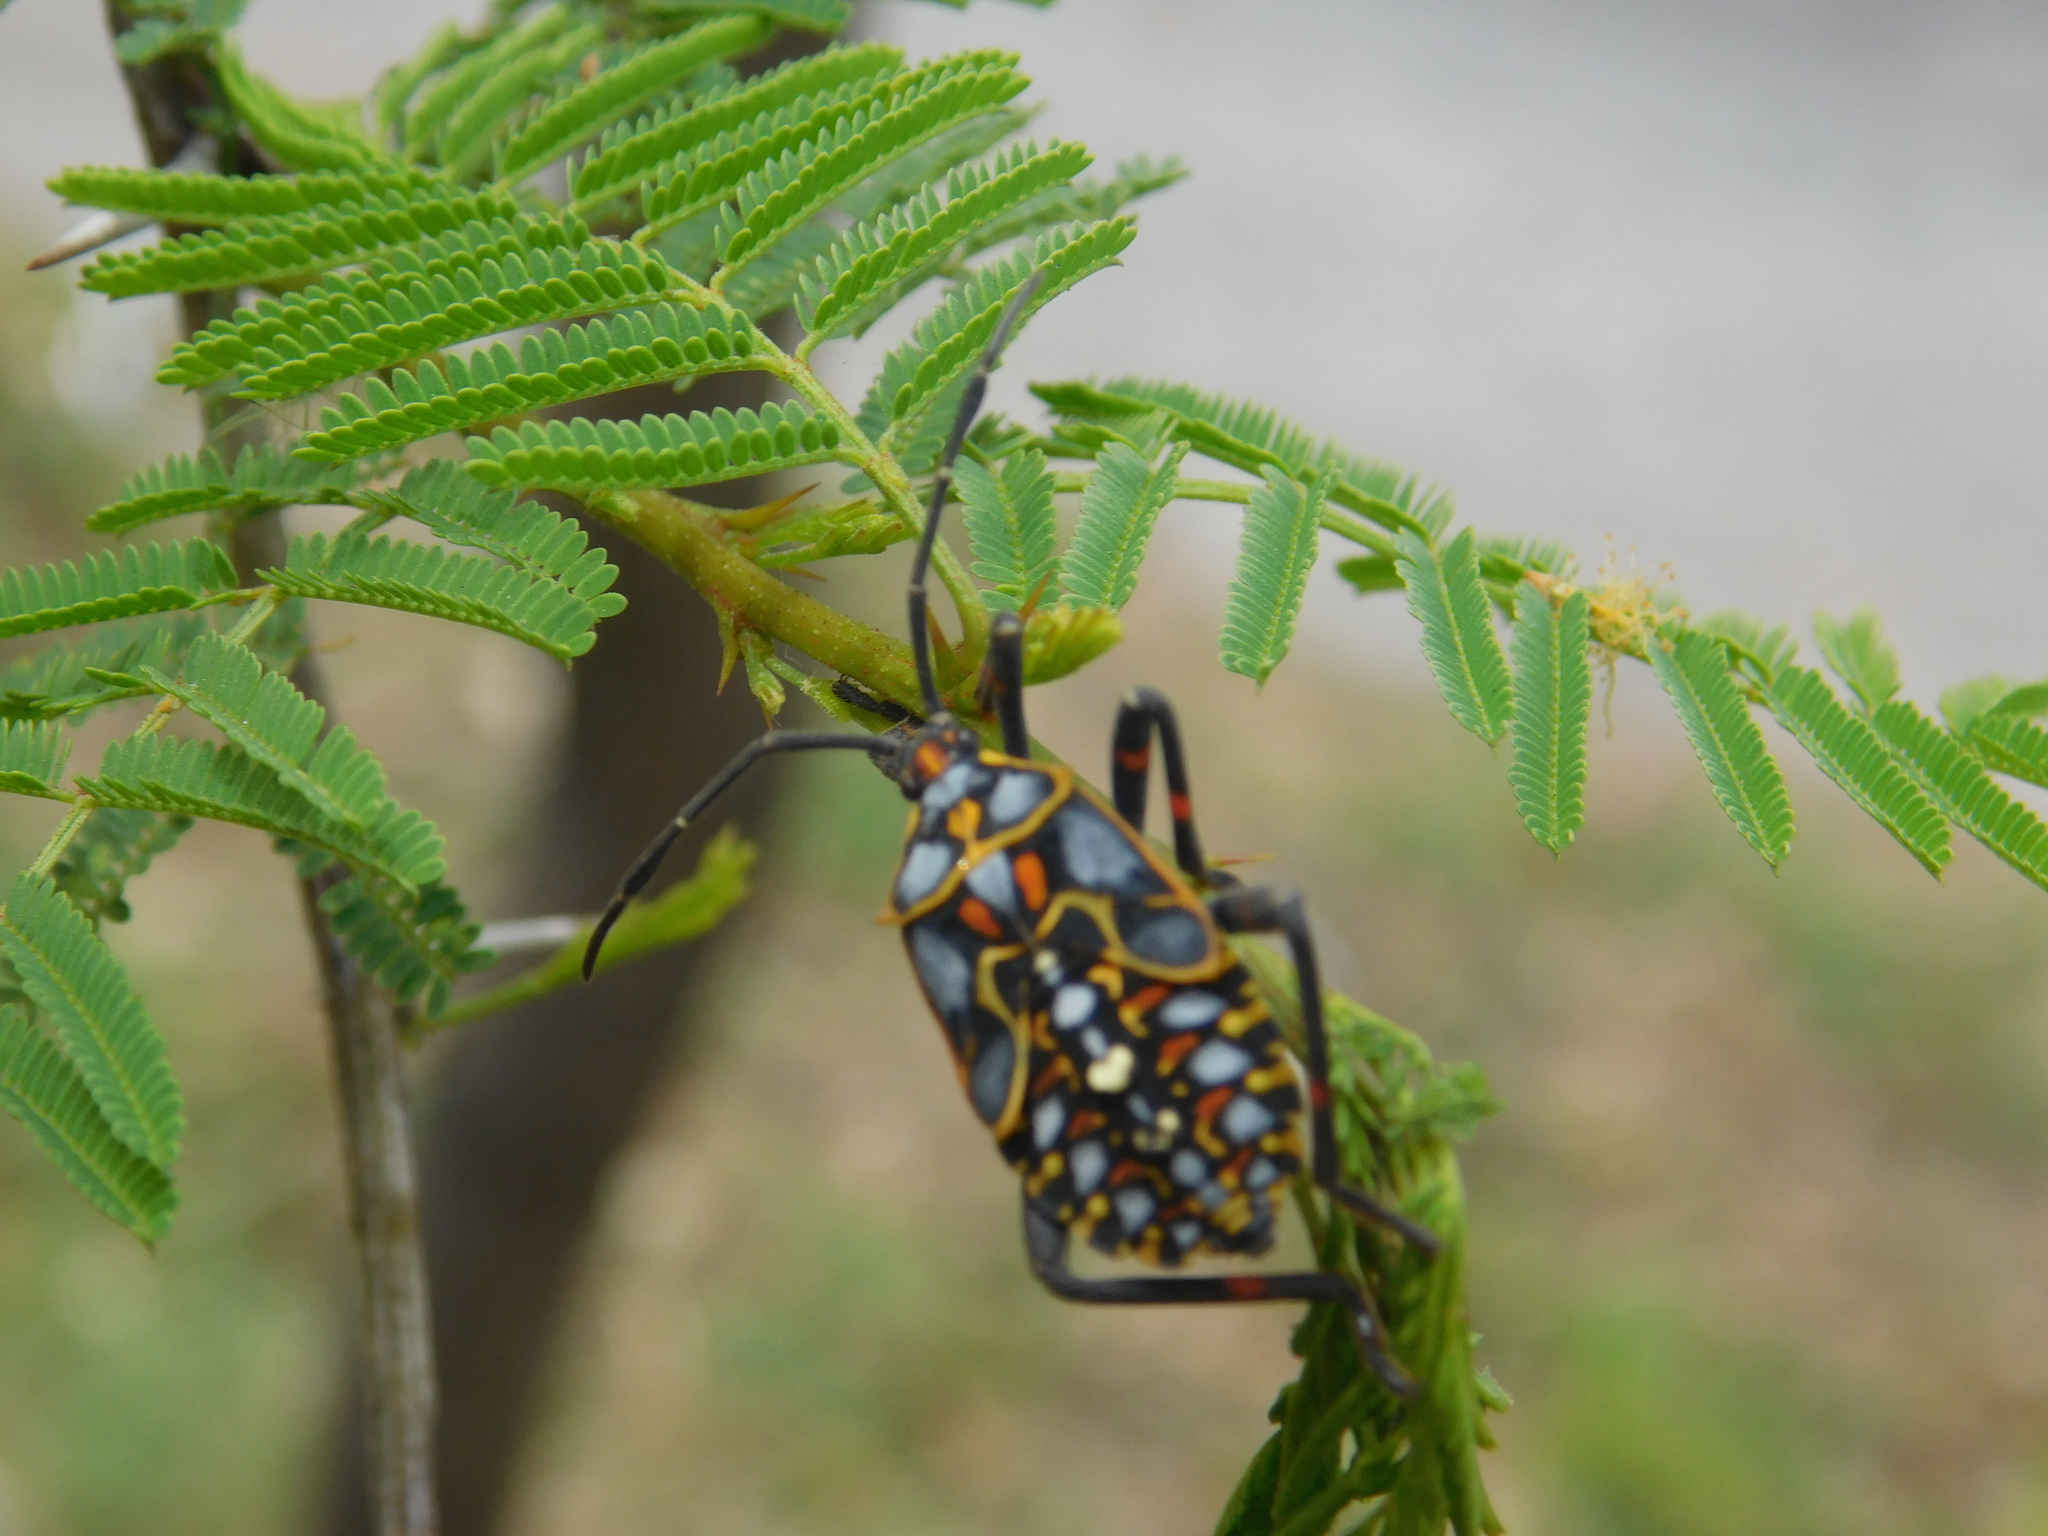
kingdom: Animalia
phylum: Arthropoda
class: Insecta
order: Hemiptera
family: Coreidae
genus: Pachylis
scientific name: Pachylis argentinus
